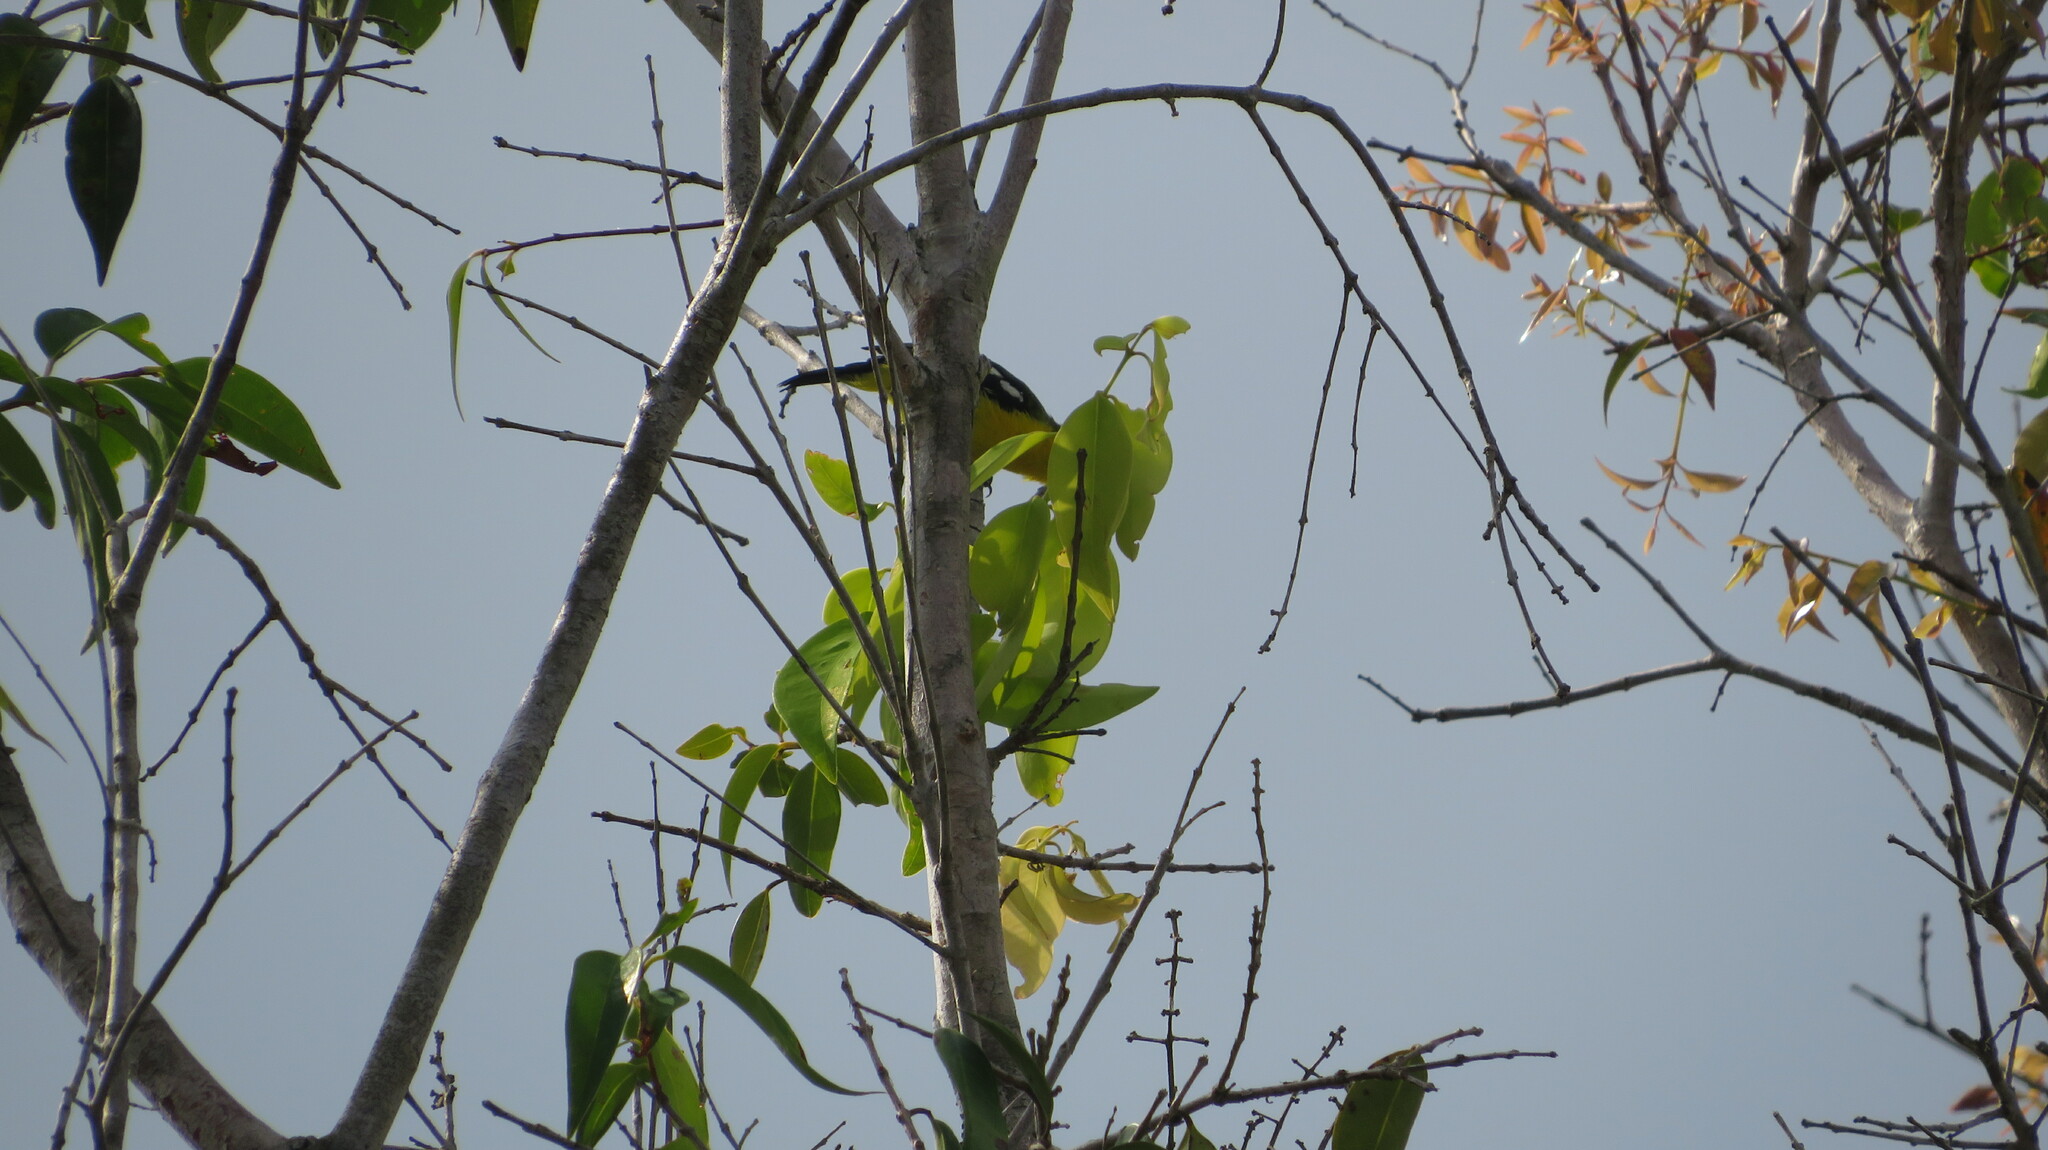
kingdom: Animalia
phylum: Chordata
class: Aves
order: Passeriformes
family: Aegithinidae
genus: Aegithina
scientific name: Aegithina tiphia
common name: Common iora
